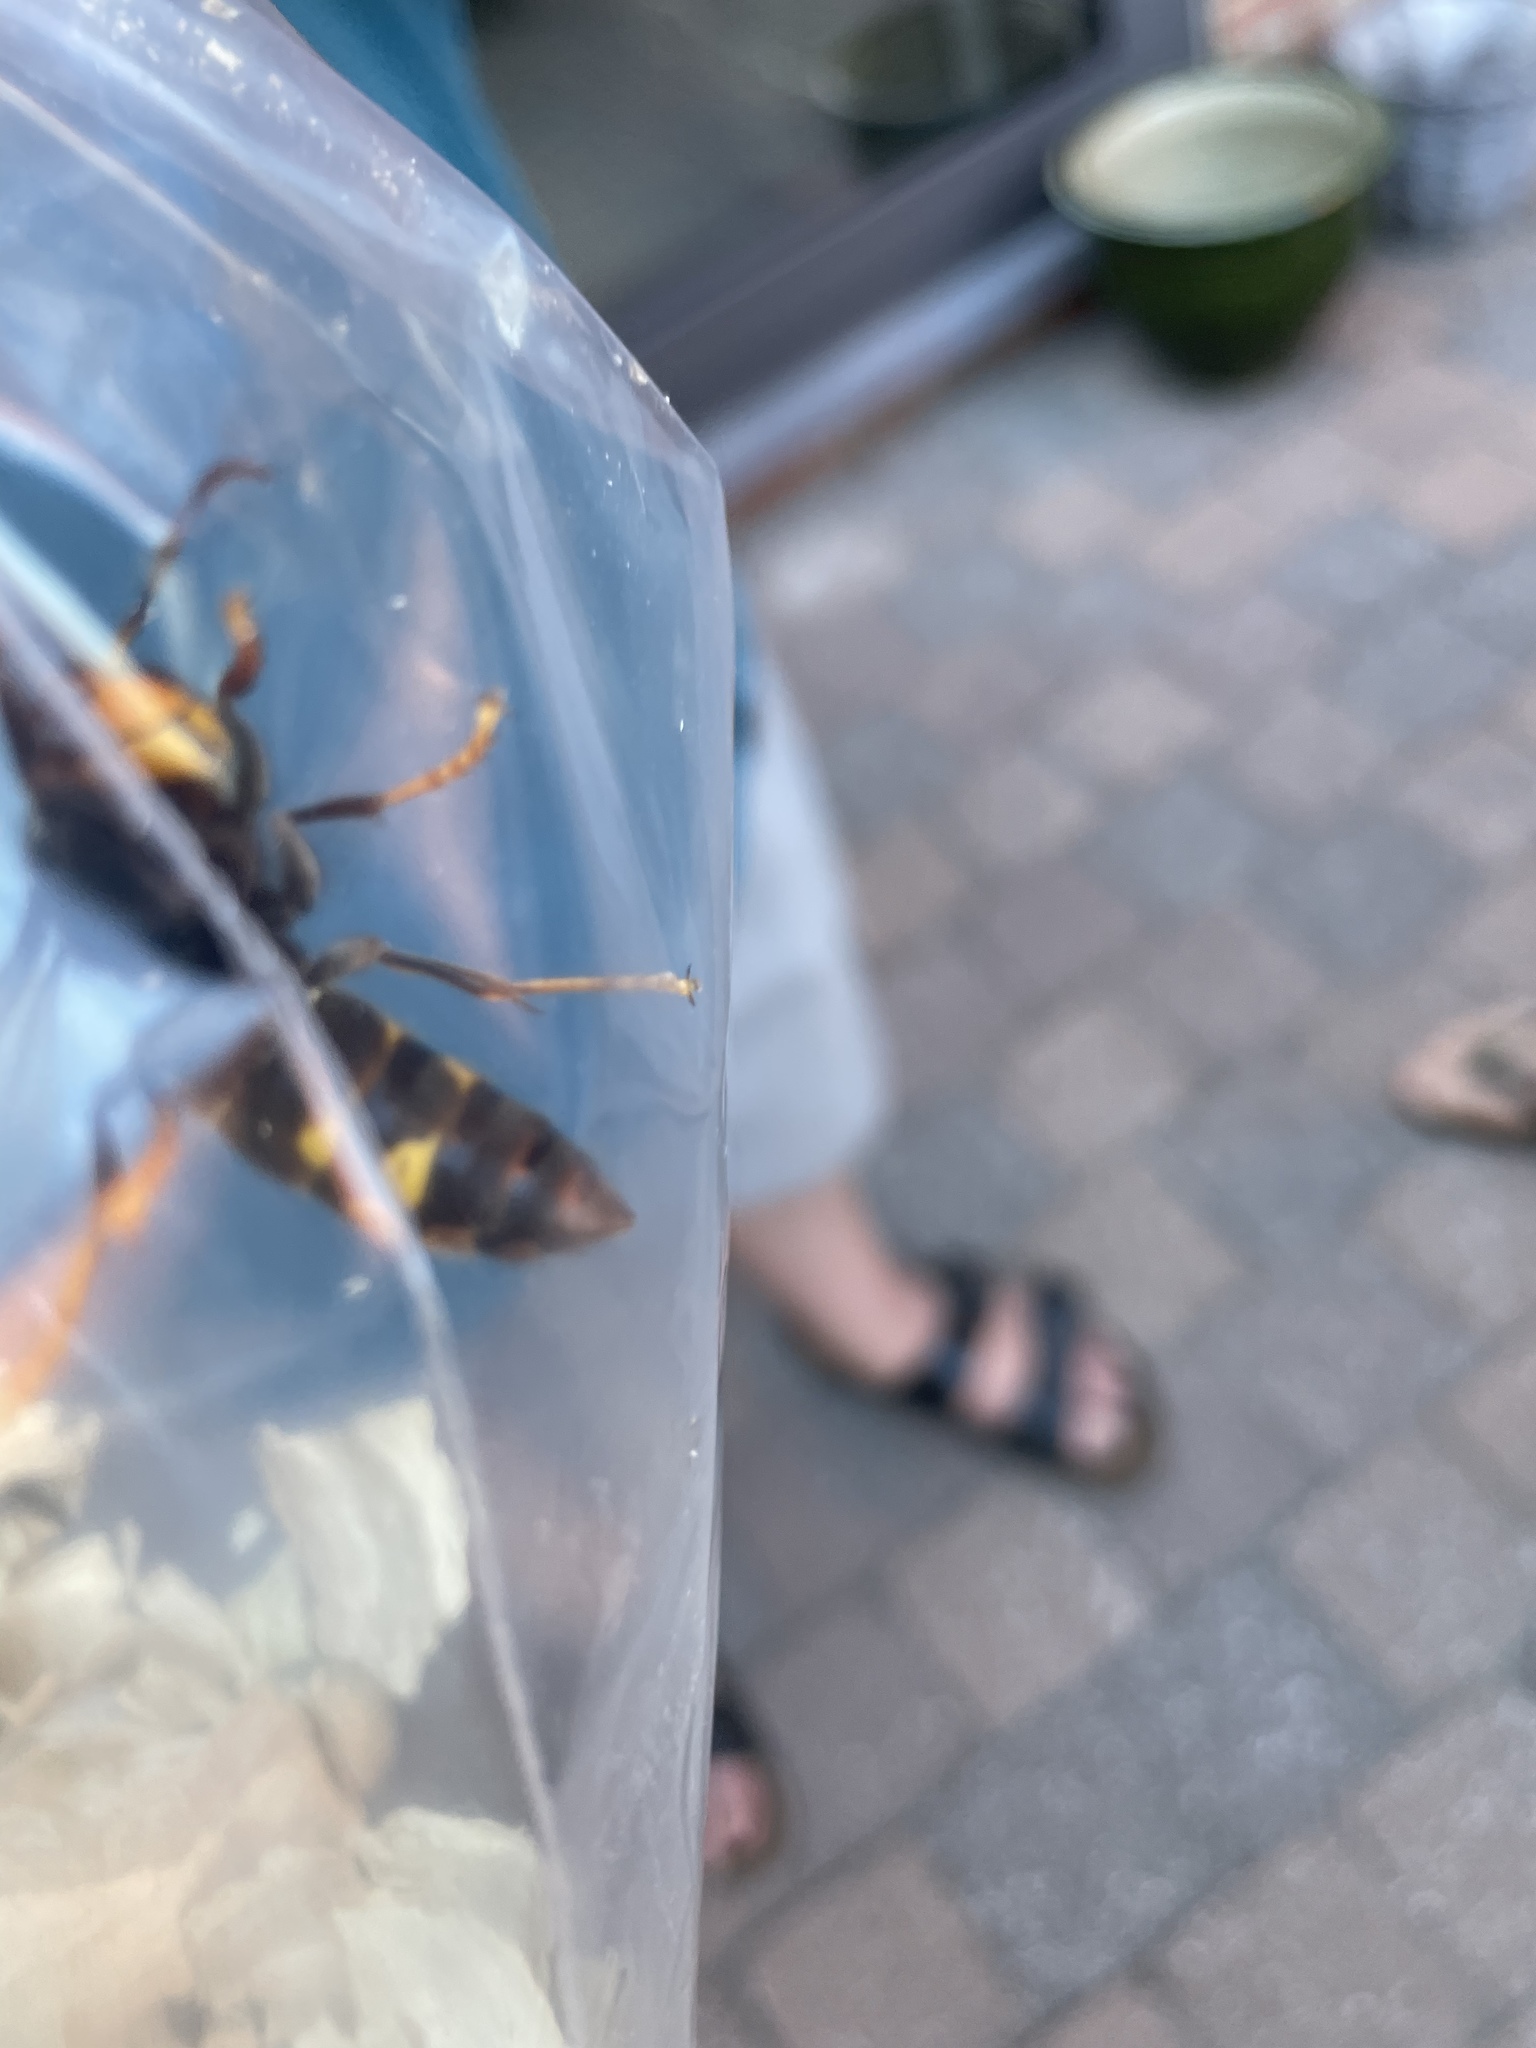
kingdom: Animalia
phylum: Arthropoda
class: Insecta
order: Hymenoptera
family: Vespidae
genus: Vespa
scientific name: Vespa velutina
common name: Asian hornet
